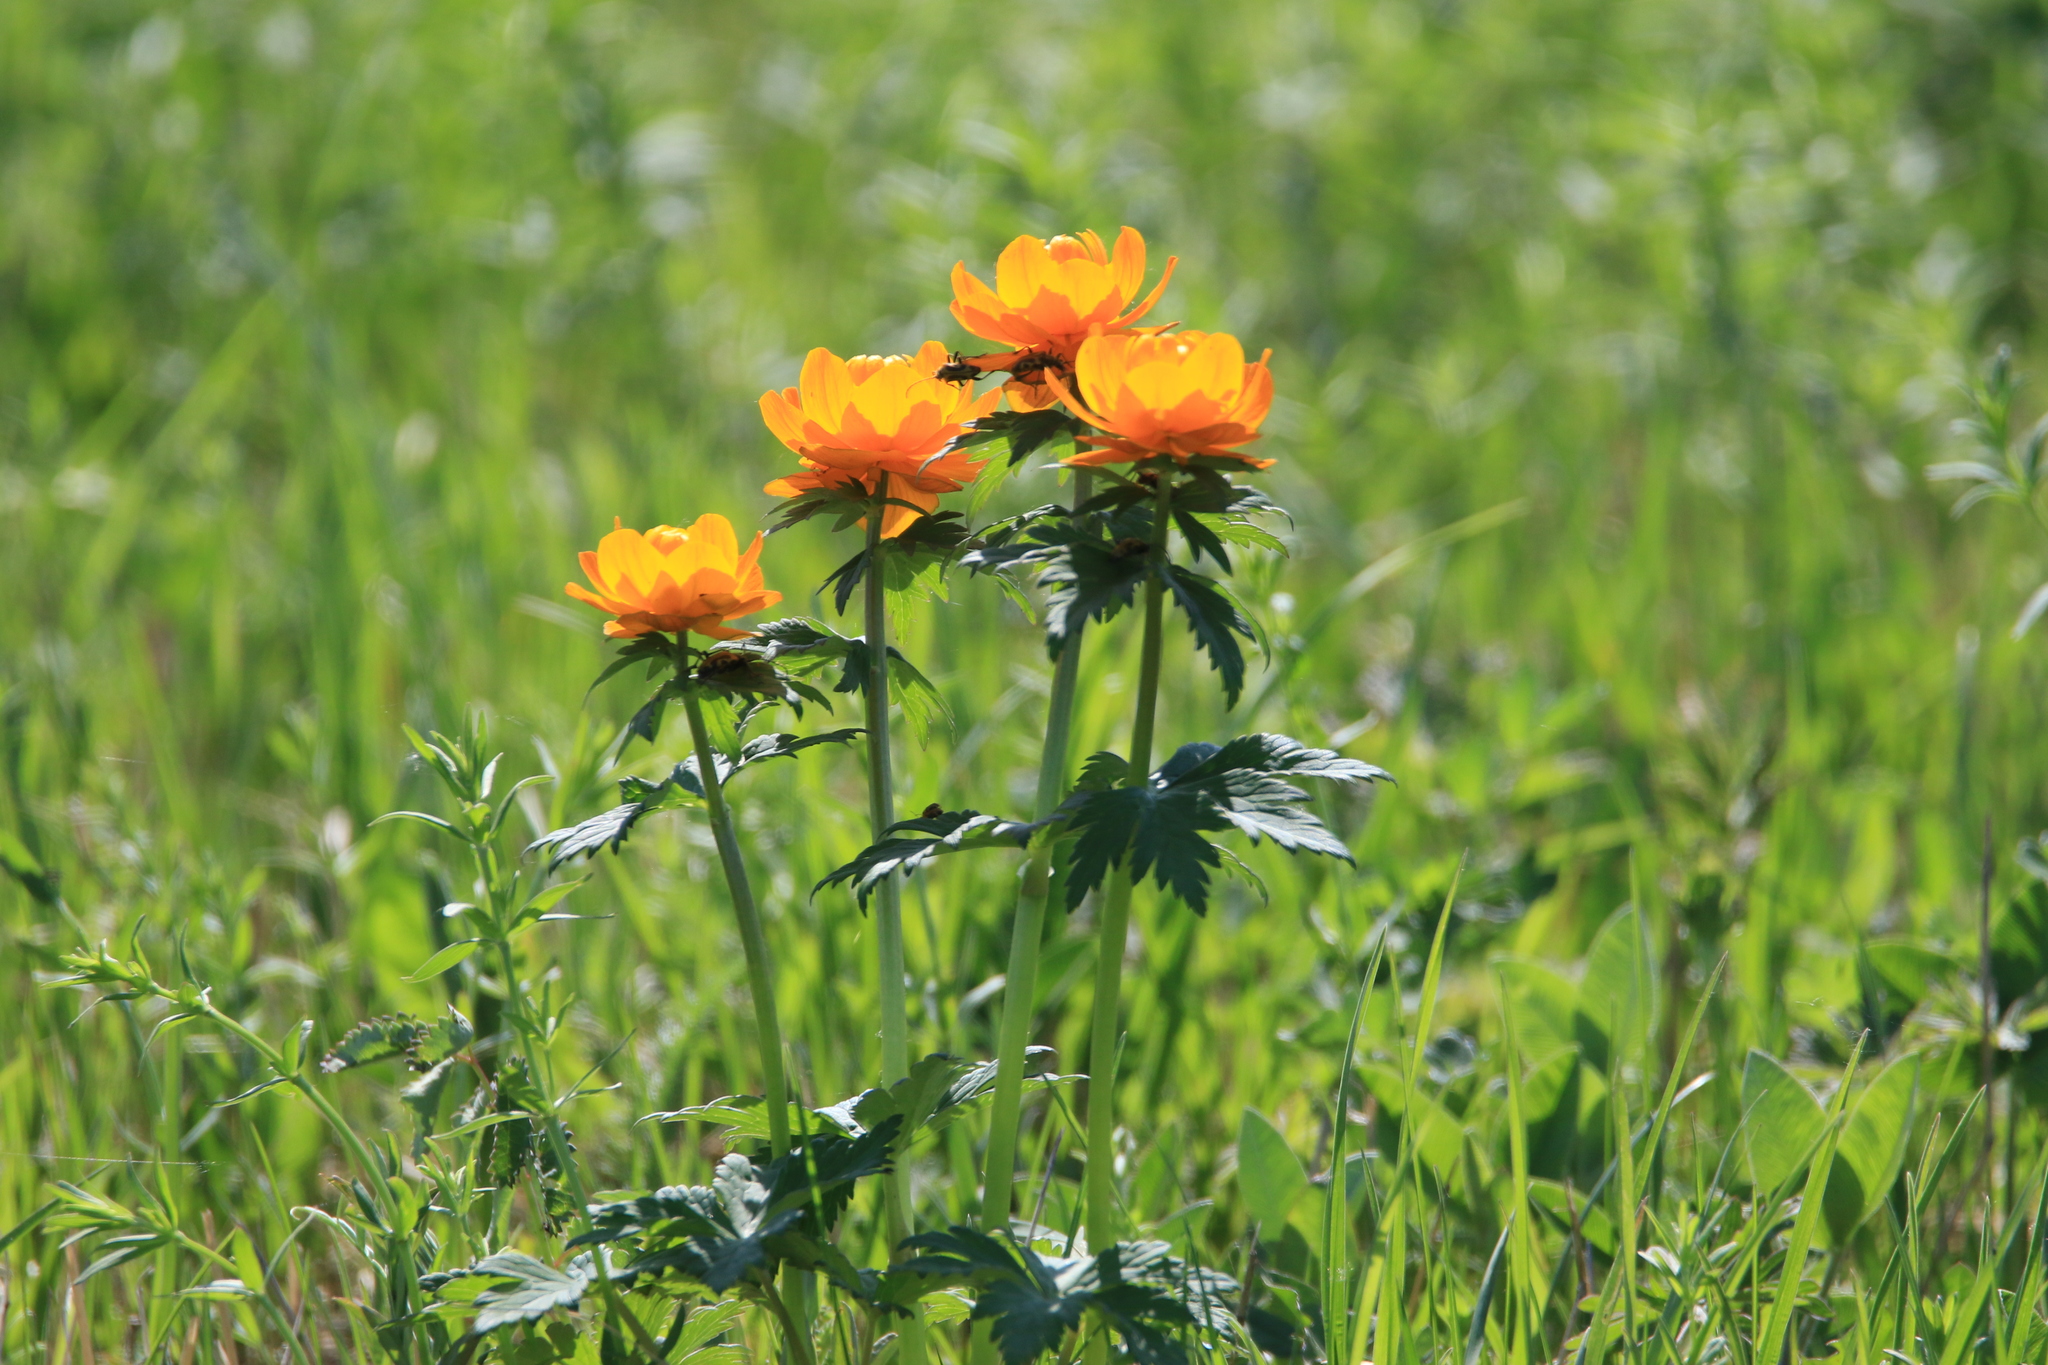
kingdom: Plantae
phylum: Tracheophyta
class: Magnoliopsida
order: Ranunculales
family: Ranunculaceae
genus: Trollius
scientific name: Trollius asiaticus
